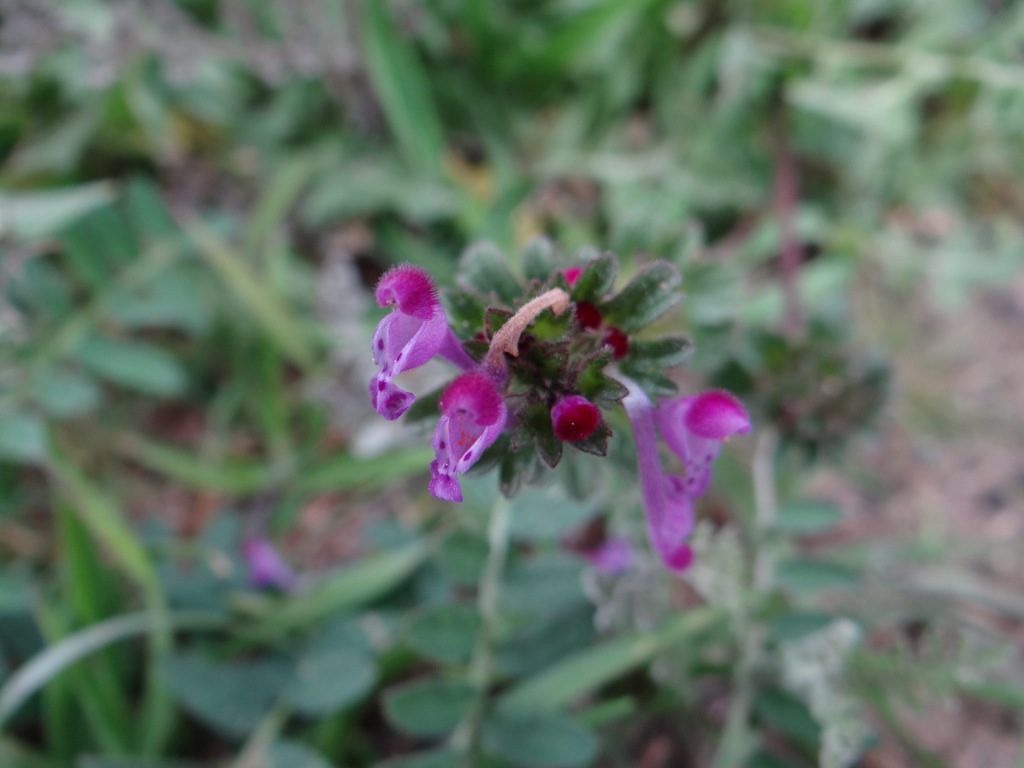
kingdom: Plantae
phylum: Tracheophyta
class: Magnoliopsida
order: Lamiales
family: Lamiaceae
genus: Lamium
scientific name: Lamium amplexicaule
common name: Henbit dead-nettle
